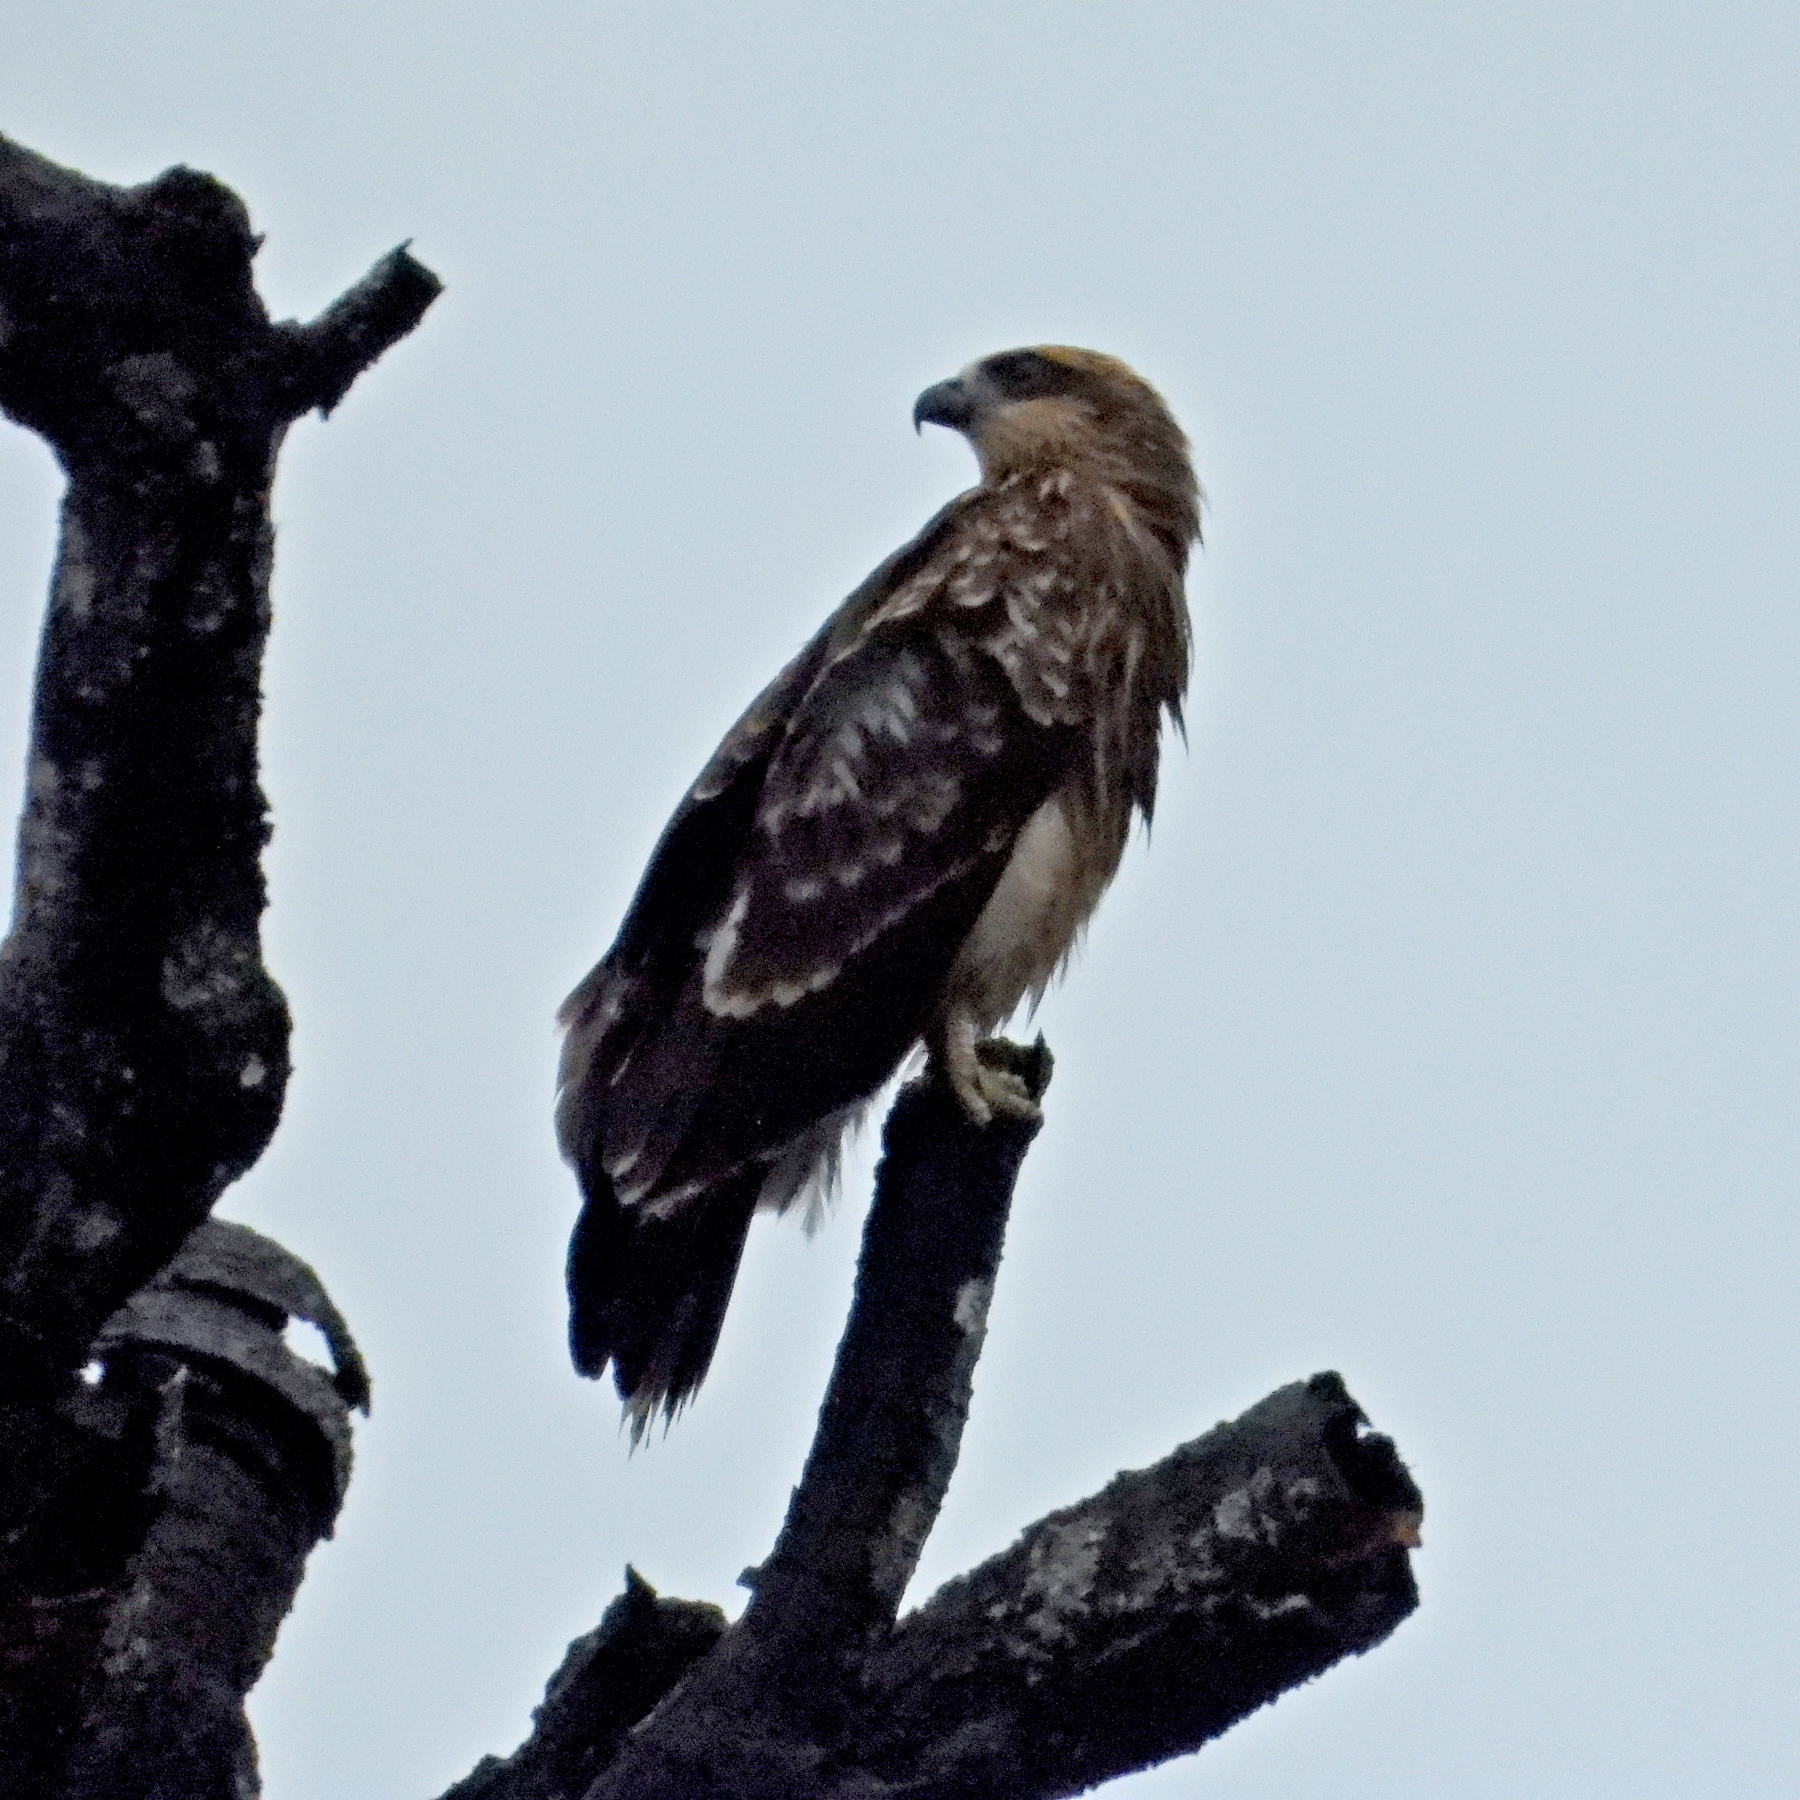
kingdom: Animalia
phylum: Chordata
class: Aves
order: Accipitriformes
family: Accipitridae
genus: Haliastur
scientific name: Haliastur indus
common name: Brahminy kite
